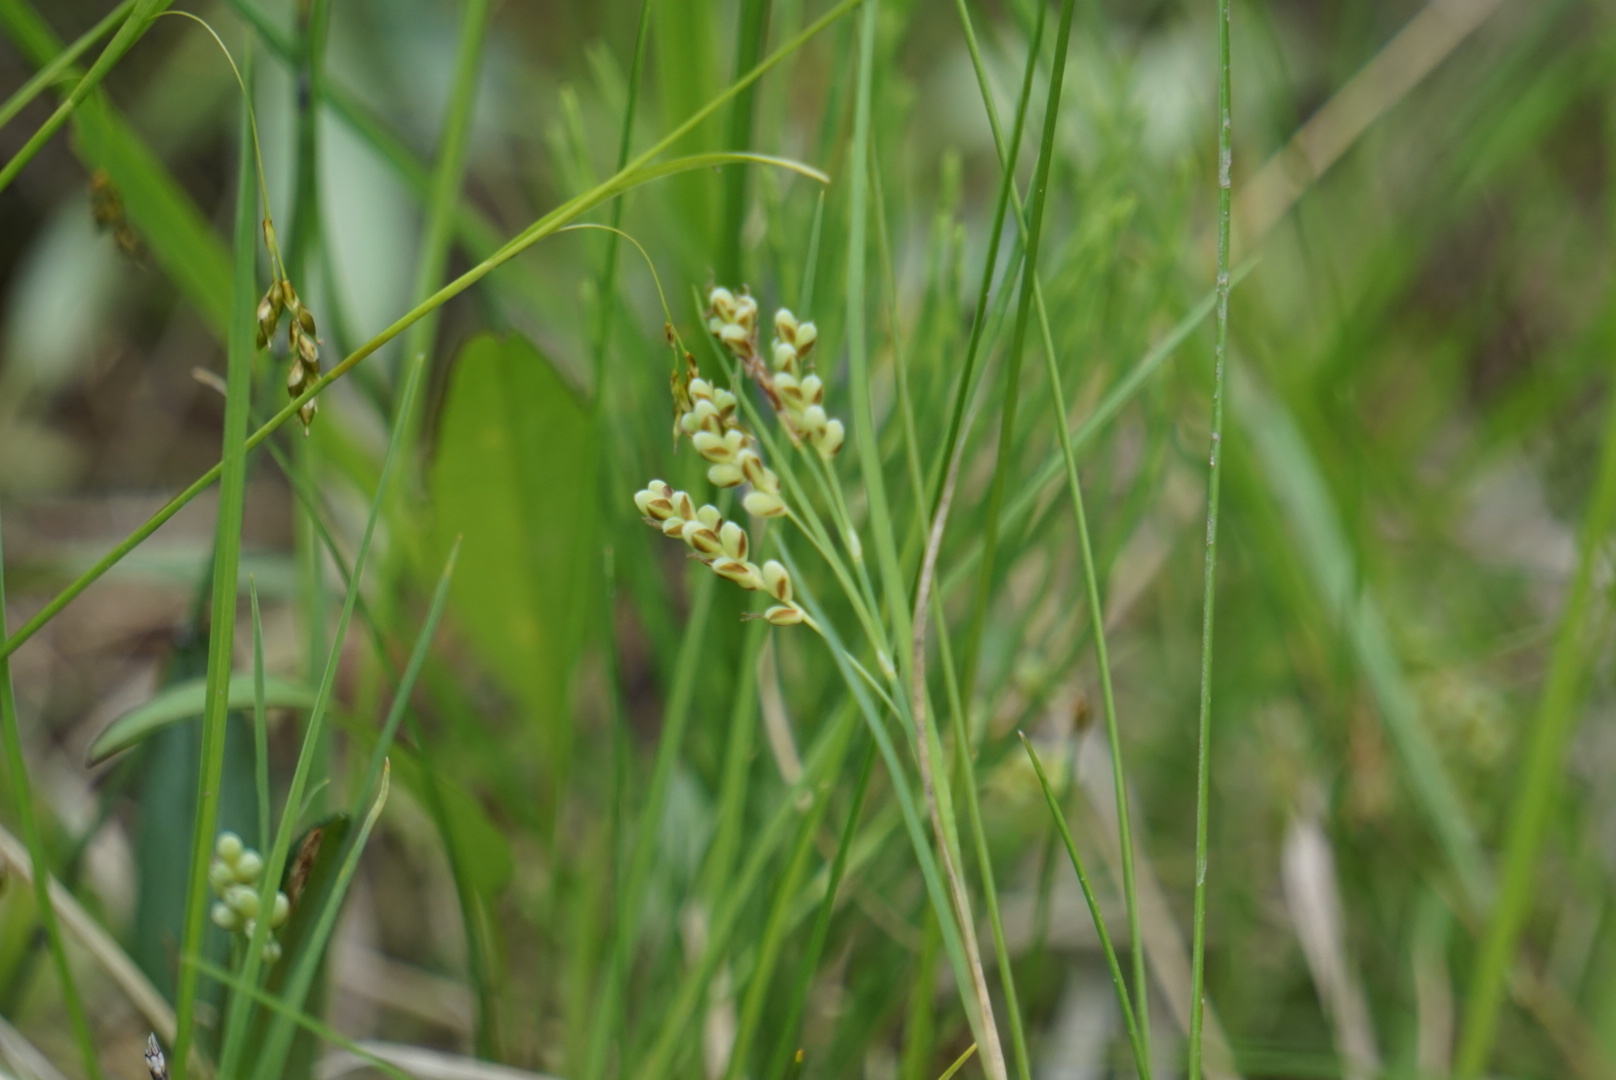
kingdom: Plantae
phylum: Tracheophyta
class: Liliopsida
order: Poales
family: Cyperaceae
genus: Carex
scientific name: Carex aurea
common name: Golden sedge
